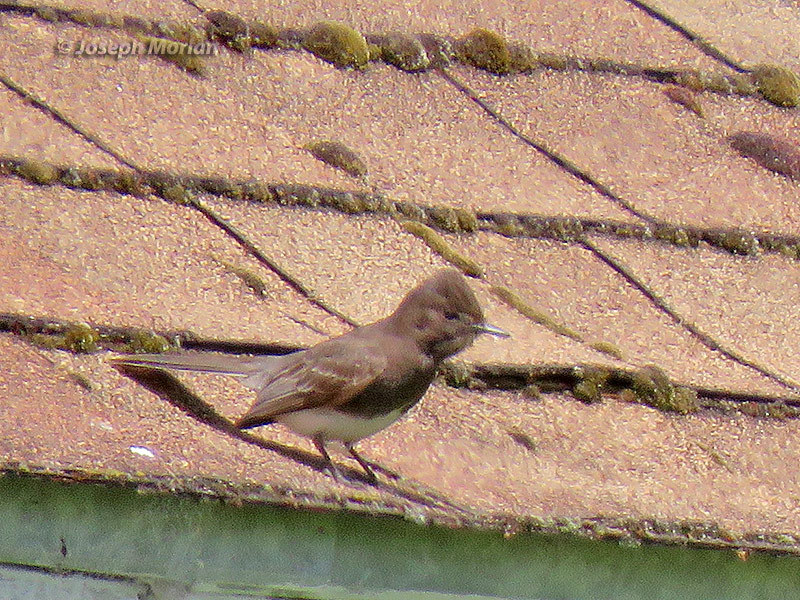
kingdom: Animalia
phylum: Chordata
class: Aves
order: Passeriformes
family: Tyrannidae
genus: Sayornis
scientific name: Sayornis nigricans
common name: Black phoebe
